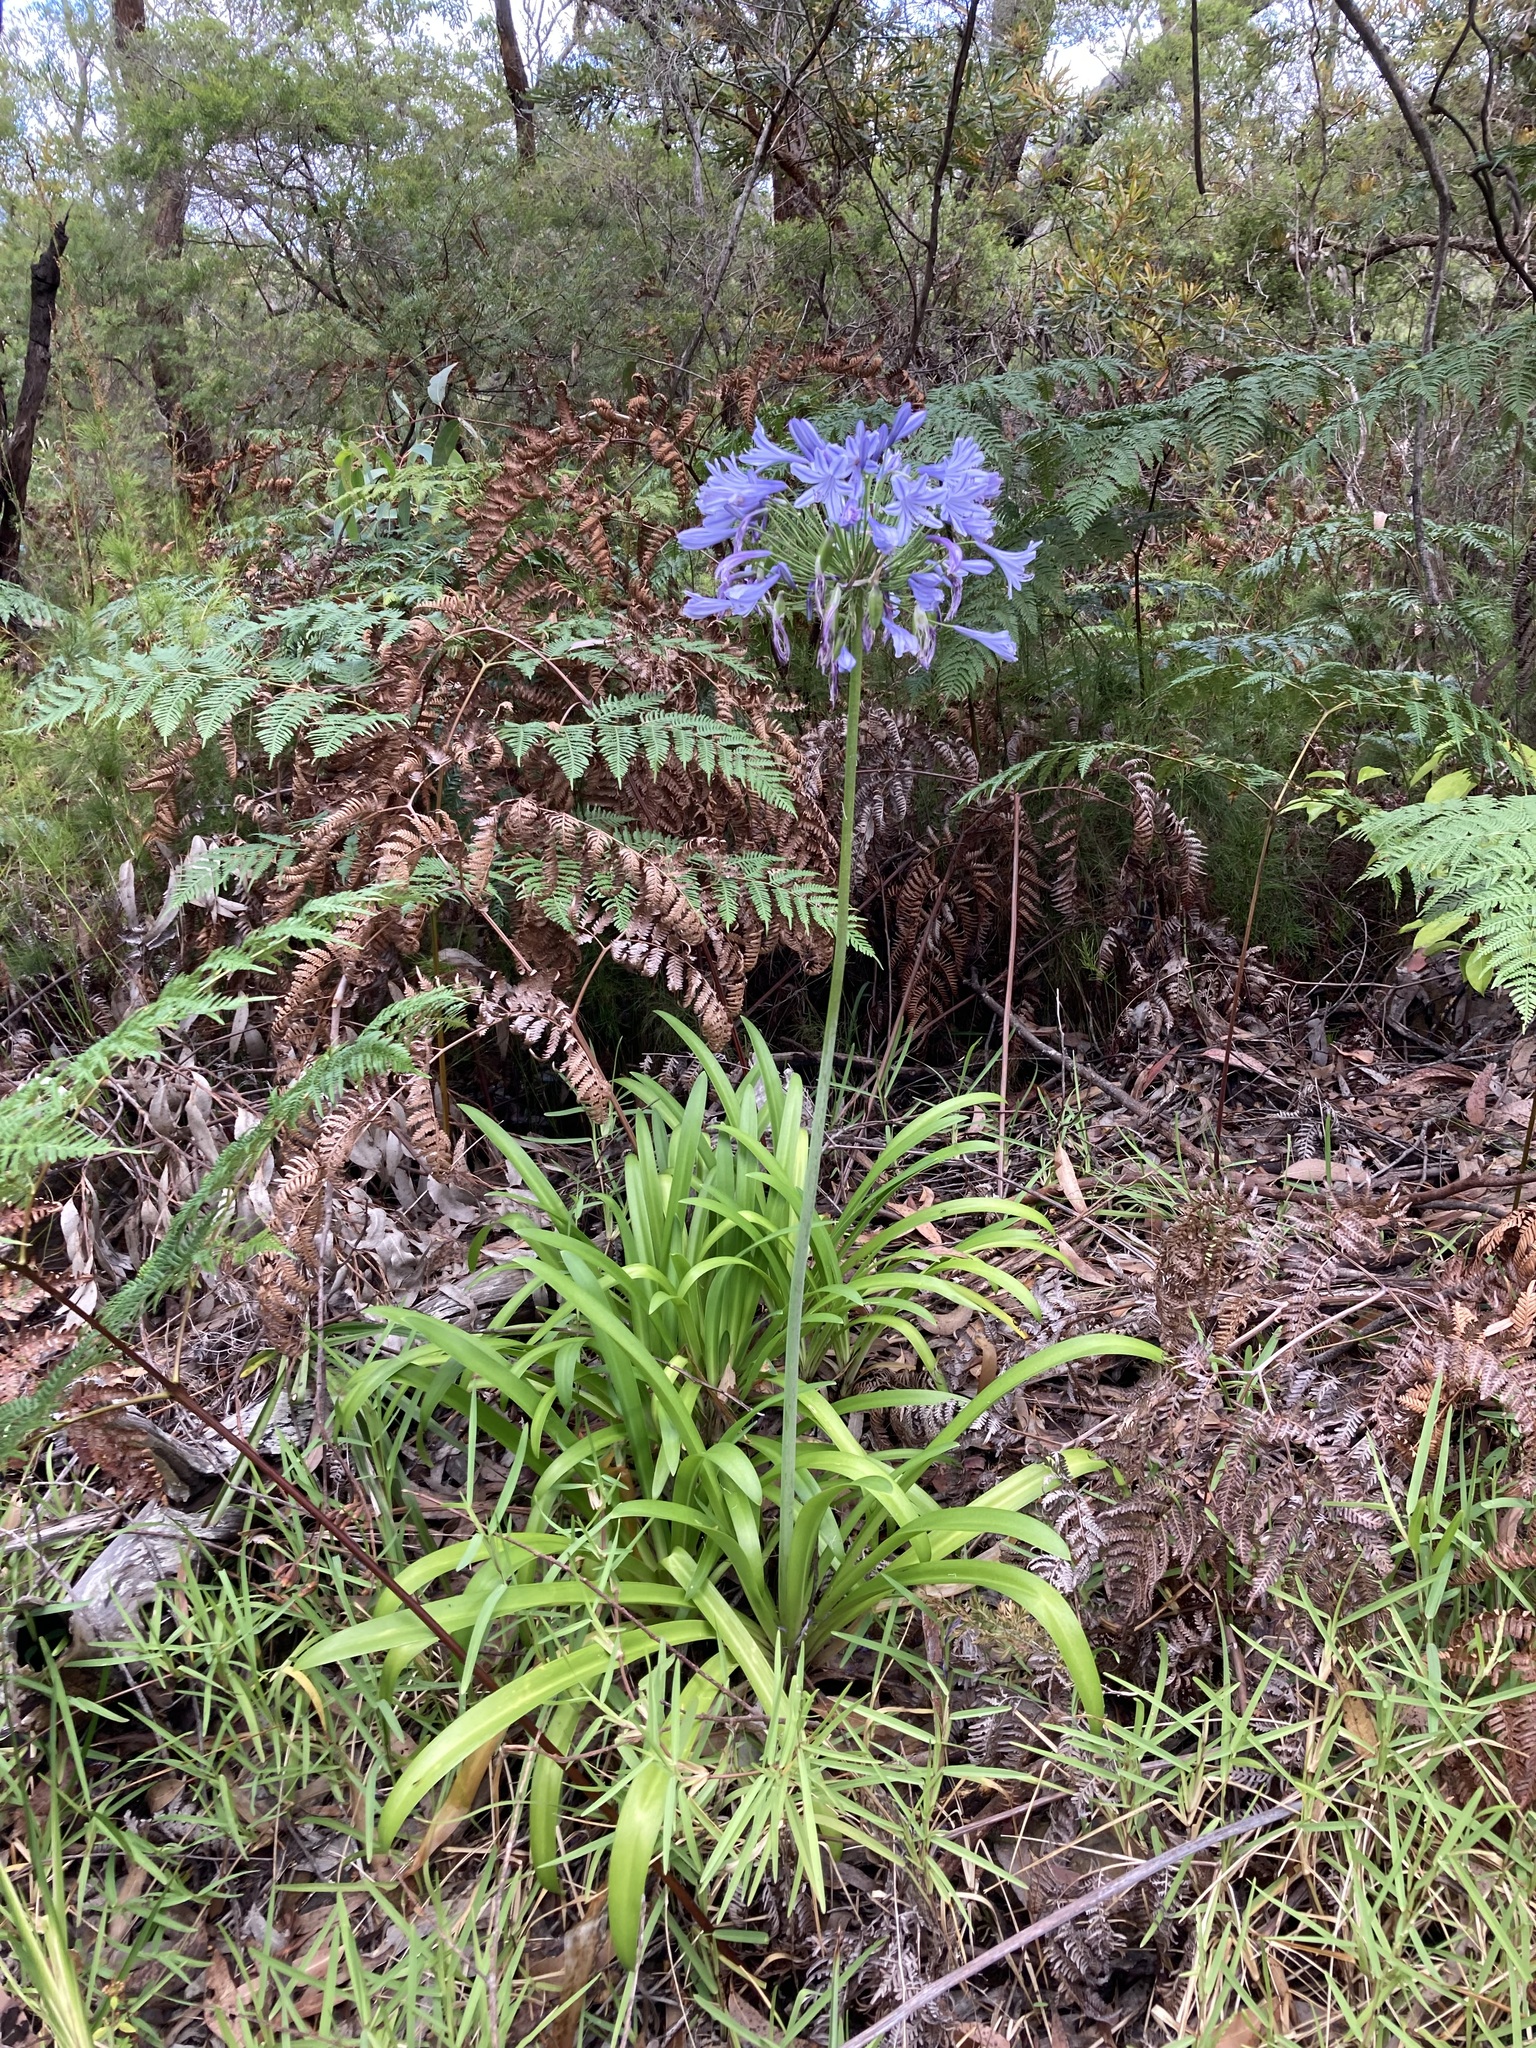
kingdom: Plantae
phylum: Tracheophyta
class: Liliopsida
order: Asparagales
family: Amaryllidaceae
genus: Agapanthus
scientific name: Agapanthus praecox
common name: African-lily
